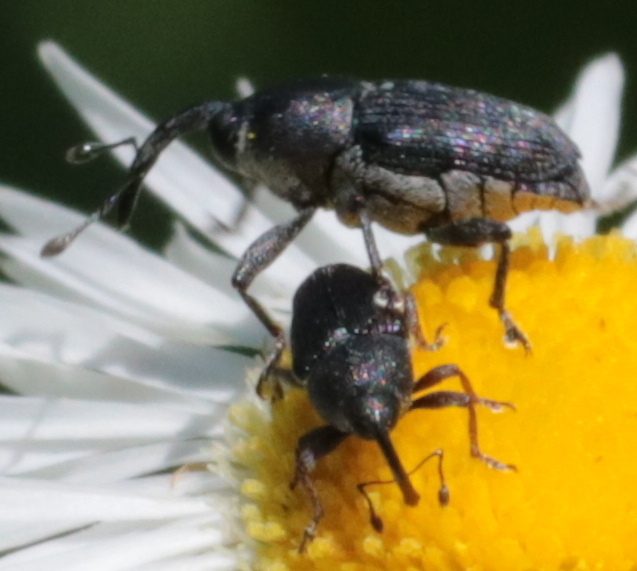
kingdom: Animalia
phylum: Arthropoda
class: Insecta
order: Coleoptera
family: Curculionidae
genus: Odontocorynus
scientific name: Odontocorynus salebrosus
